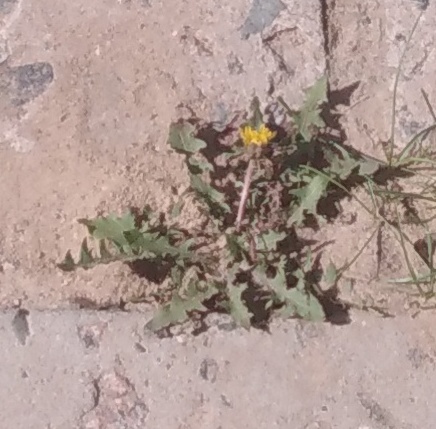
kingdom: Plantae
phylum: Tracheophyta
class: Magnoliopsida
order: Asterales
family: Asteraceae
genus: Taraxacum
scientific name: Taraxacum officinale
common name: Common dandelion
